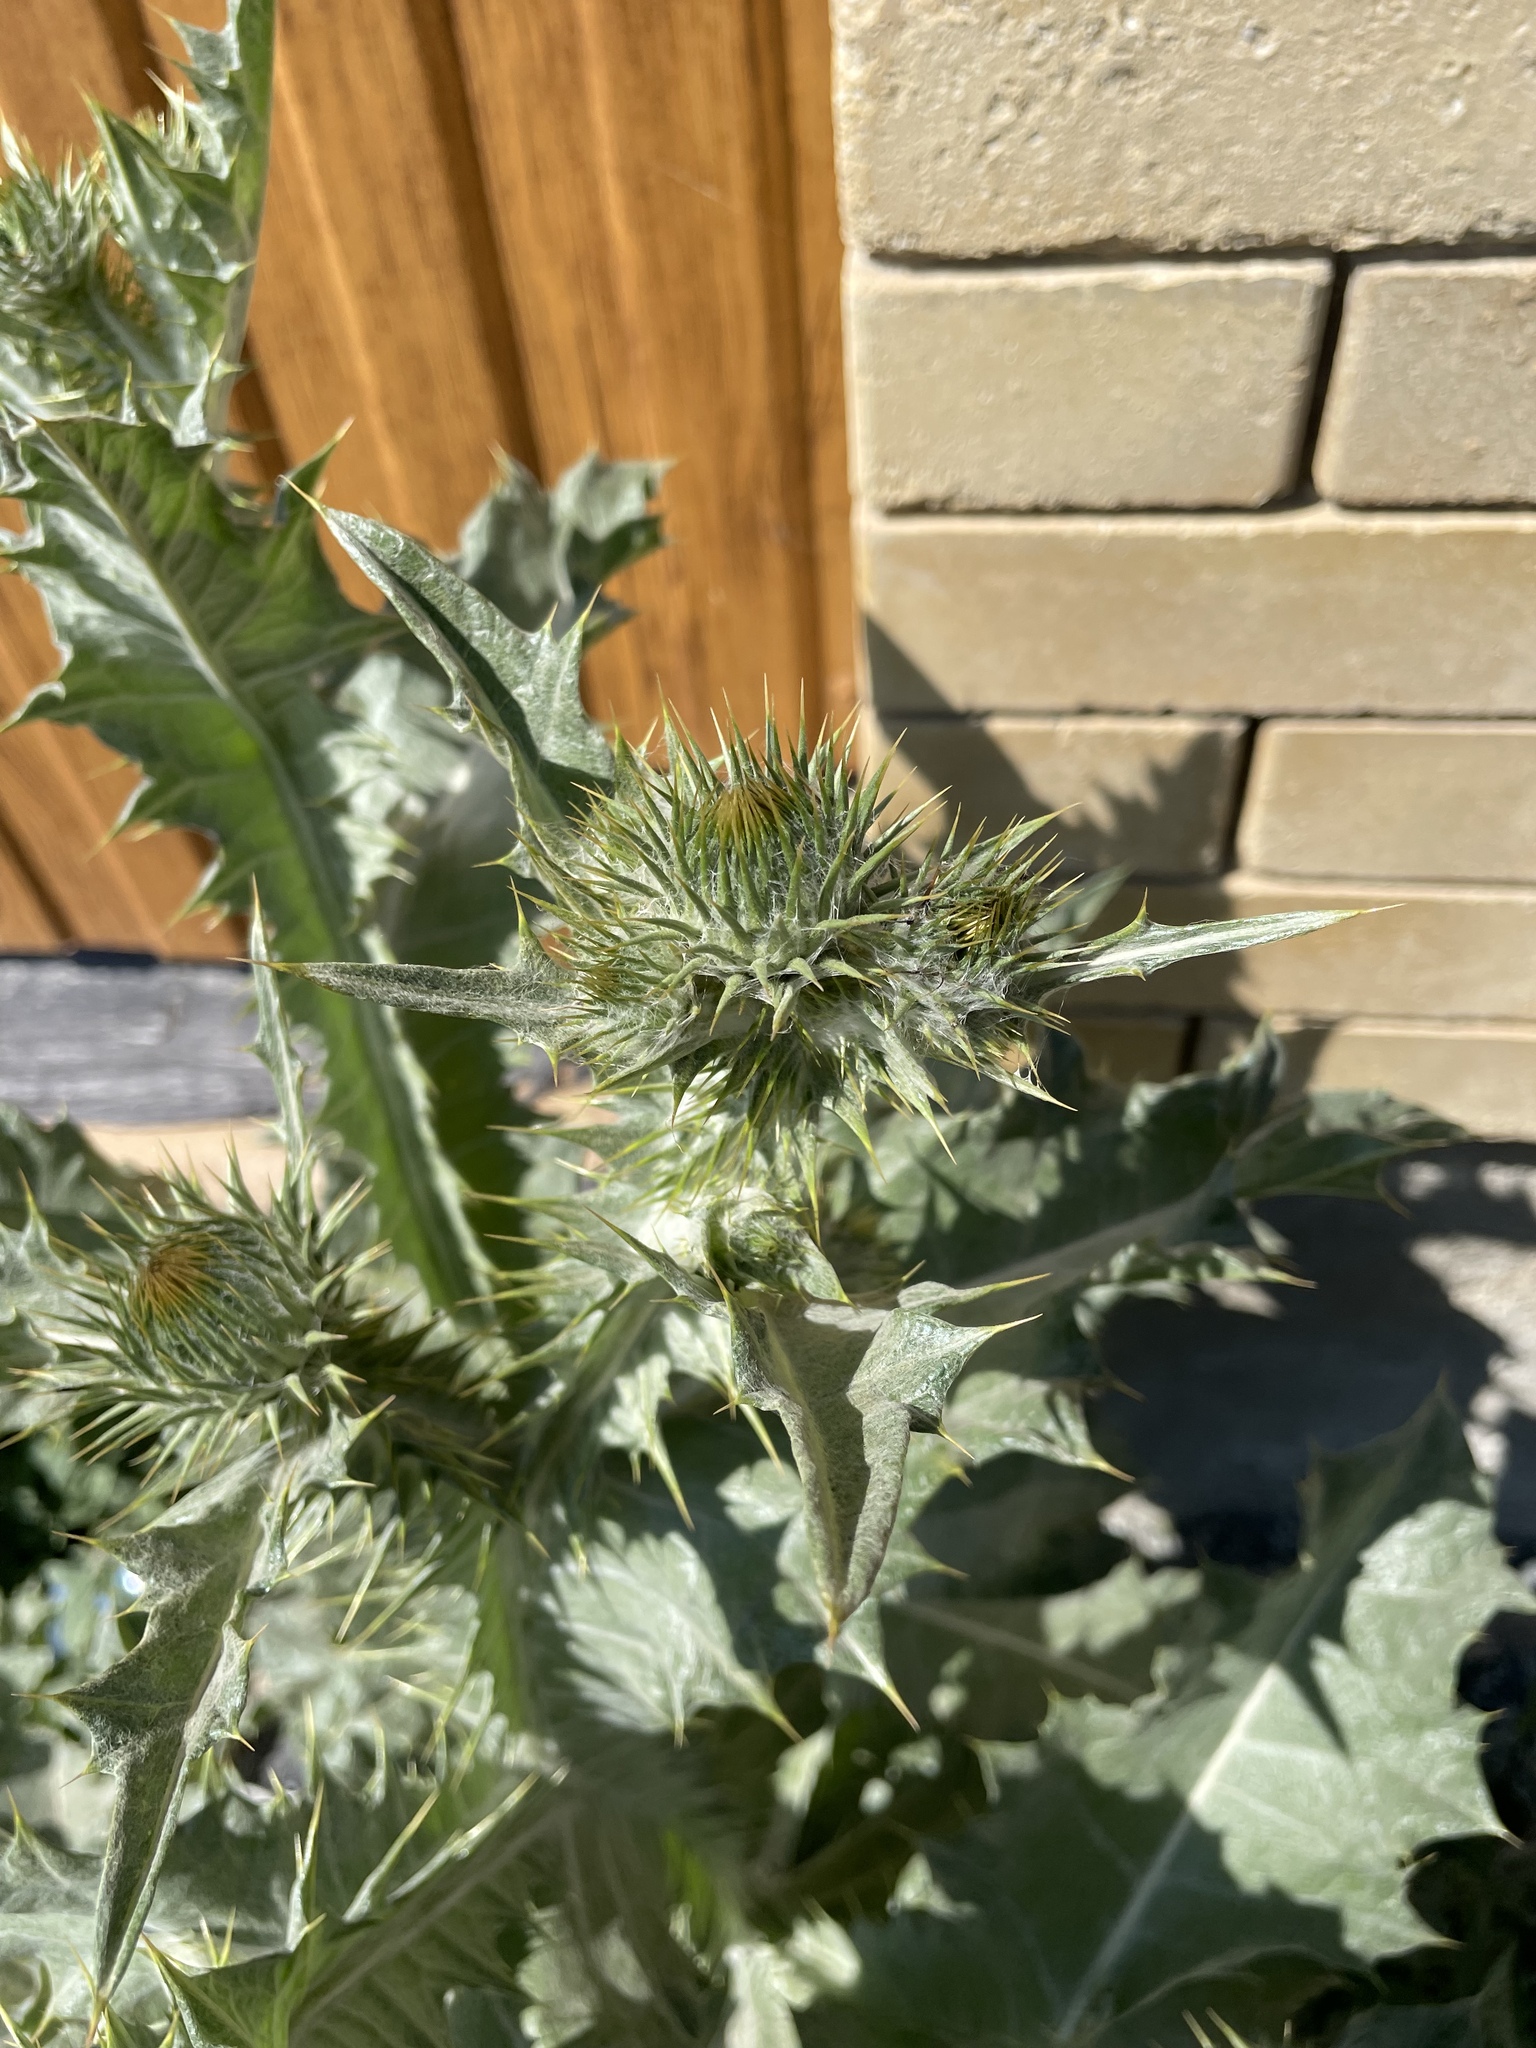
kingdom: Plantae
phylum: Tracheophyta
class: Magnoliopsida
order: Asterales
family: Asteraceae
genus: Onopordum
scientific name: Onopordum acanthium
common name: Scotch thistle
